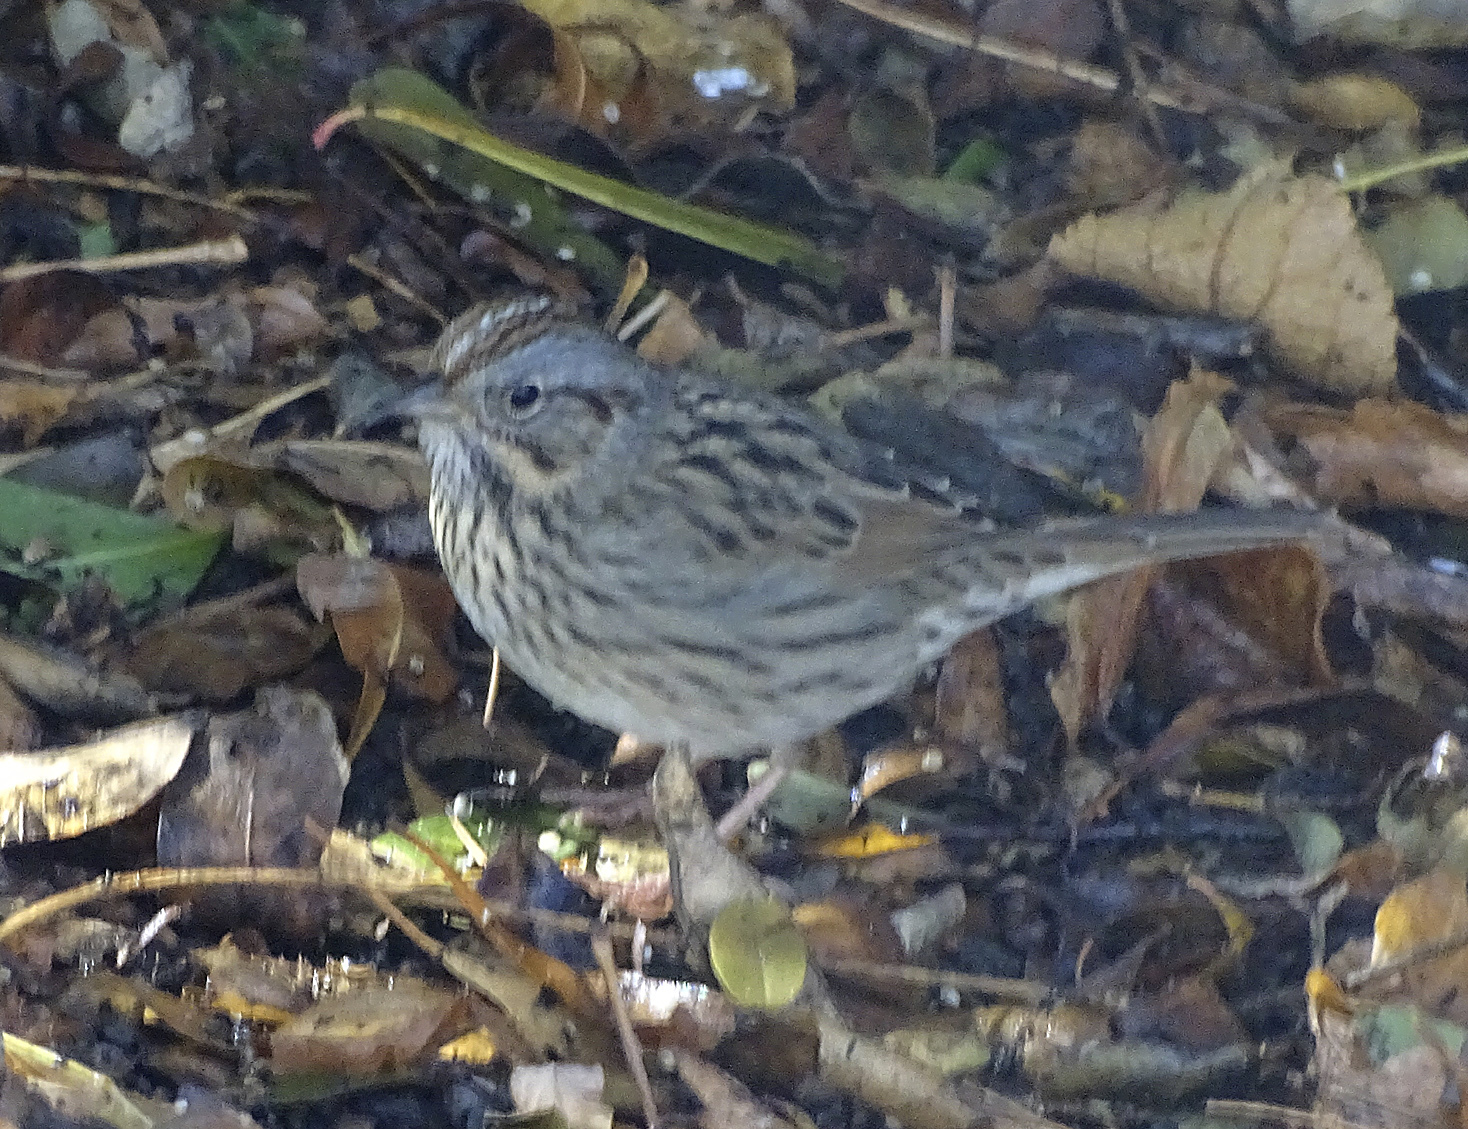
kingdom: Animalia
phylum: Chordata
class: Aves
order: Passeriformes
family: Passerellidae
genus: Melospiza
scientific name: Melospiza lincolnii
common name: Lincoln's sparrow
